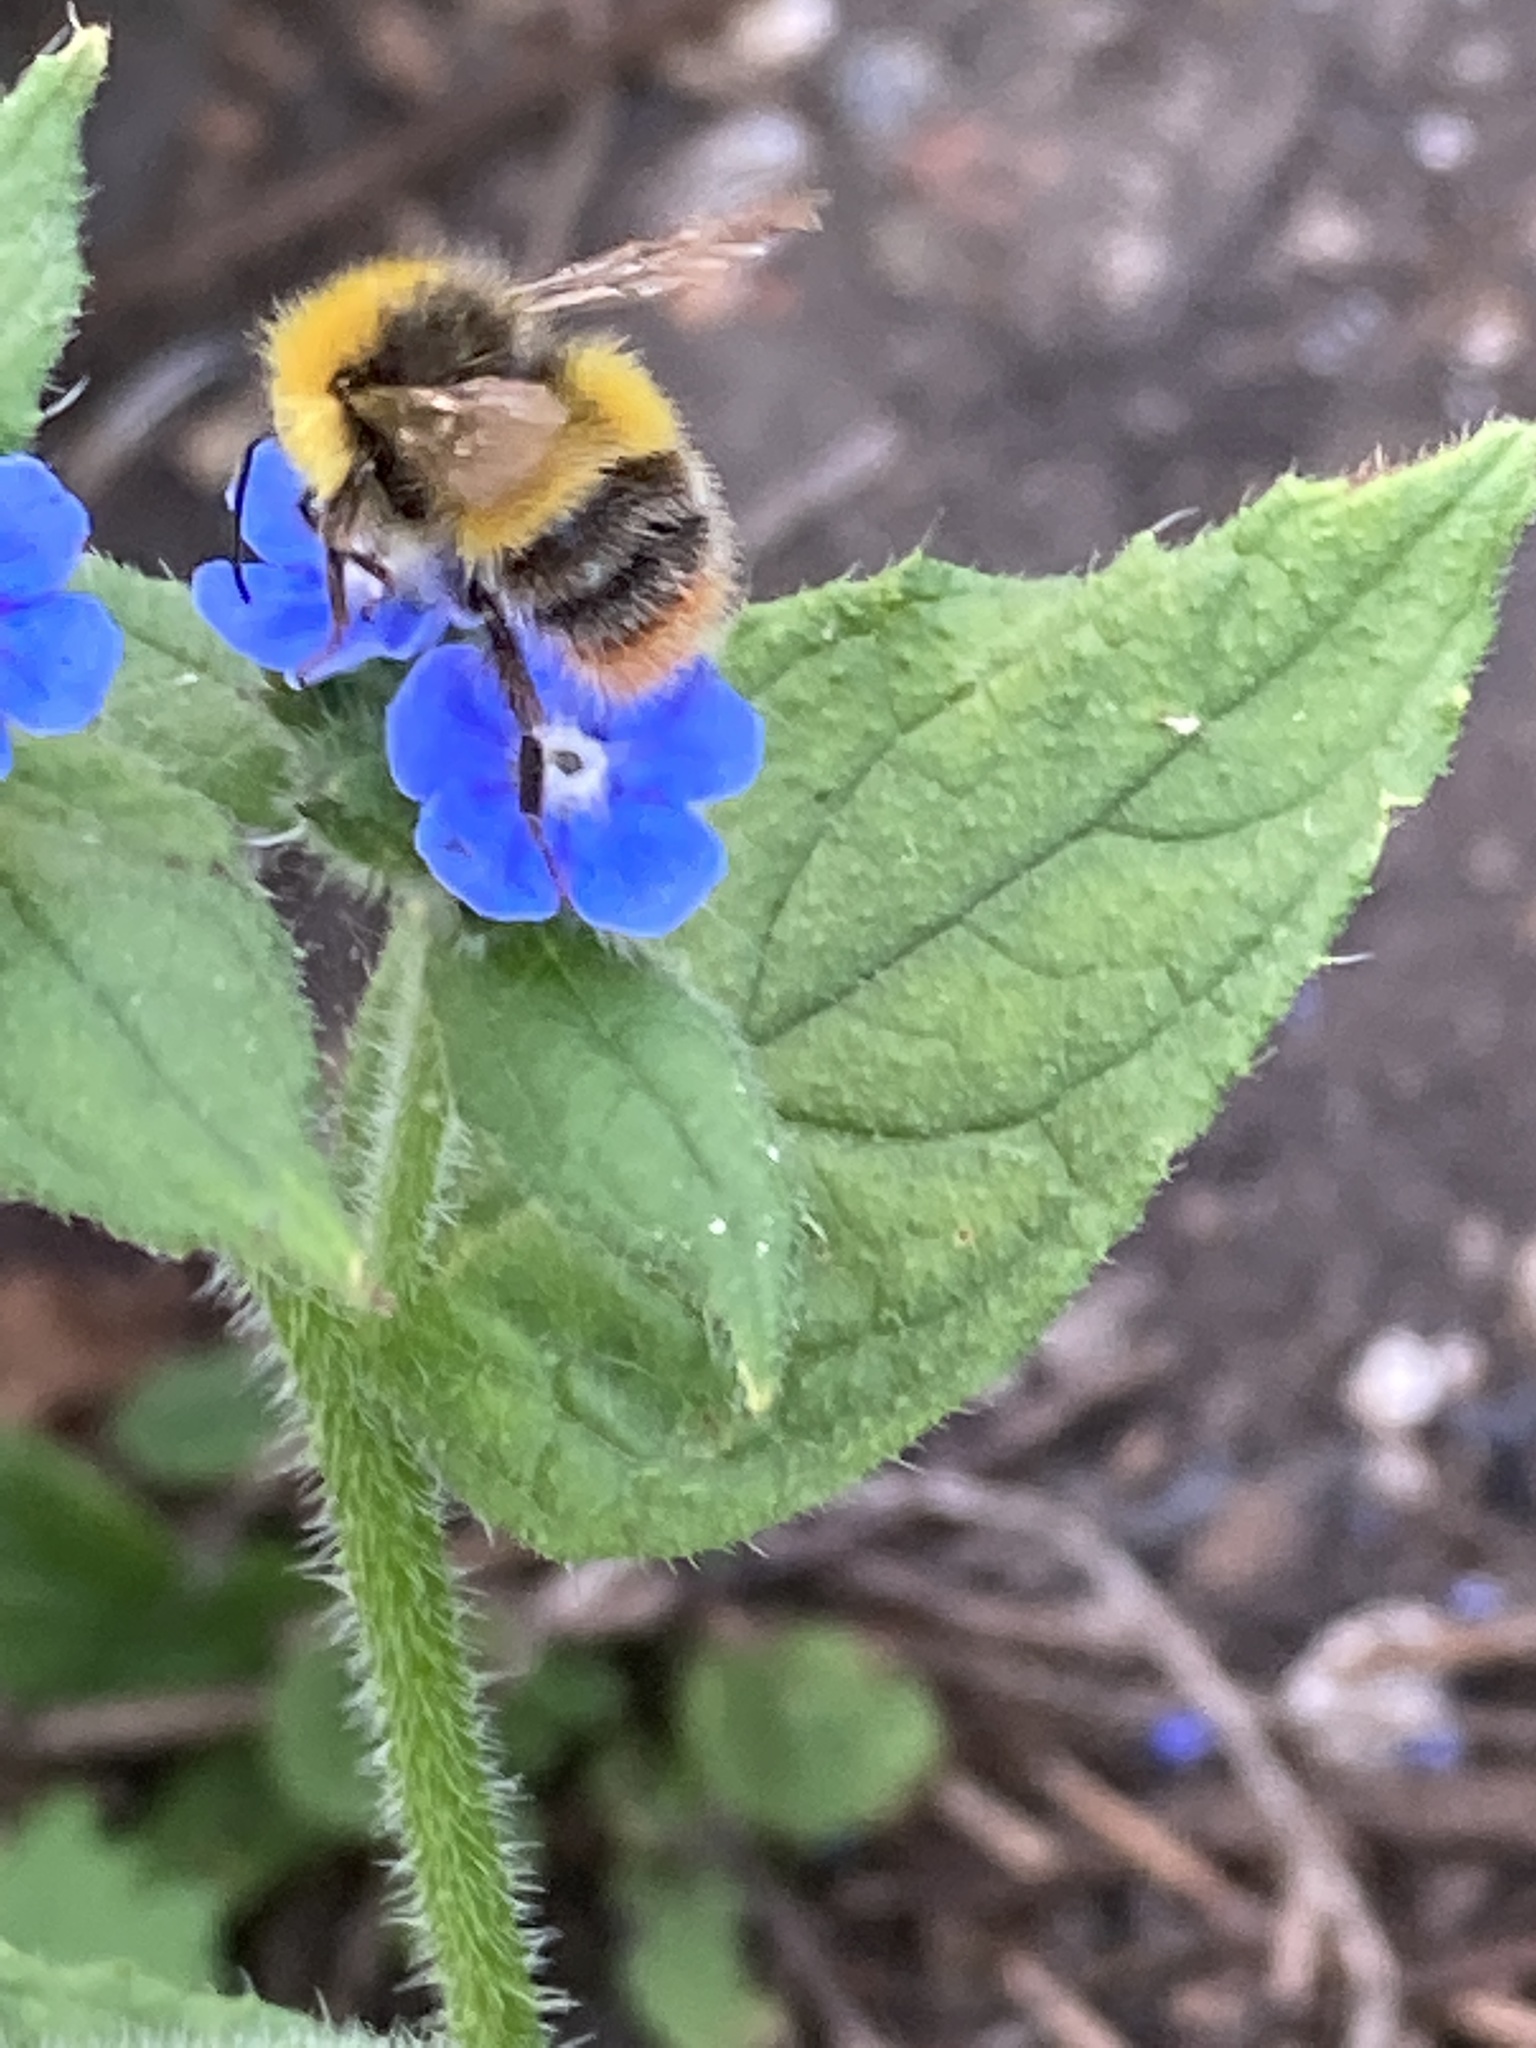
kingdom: Animalia
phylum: Arthropoda
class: Insecta
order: Hymenoptera
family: Apidae
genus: Bombus
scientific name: Bombus pratorum
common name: Early humble-bee
